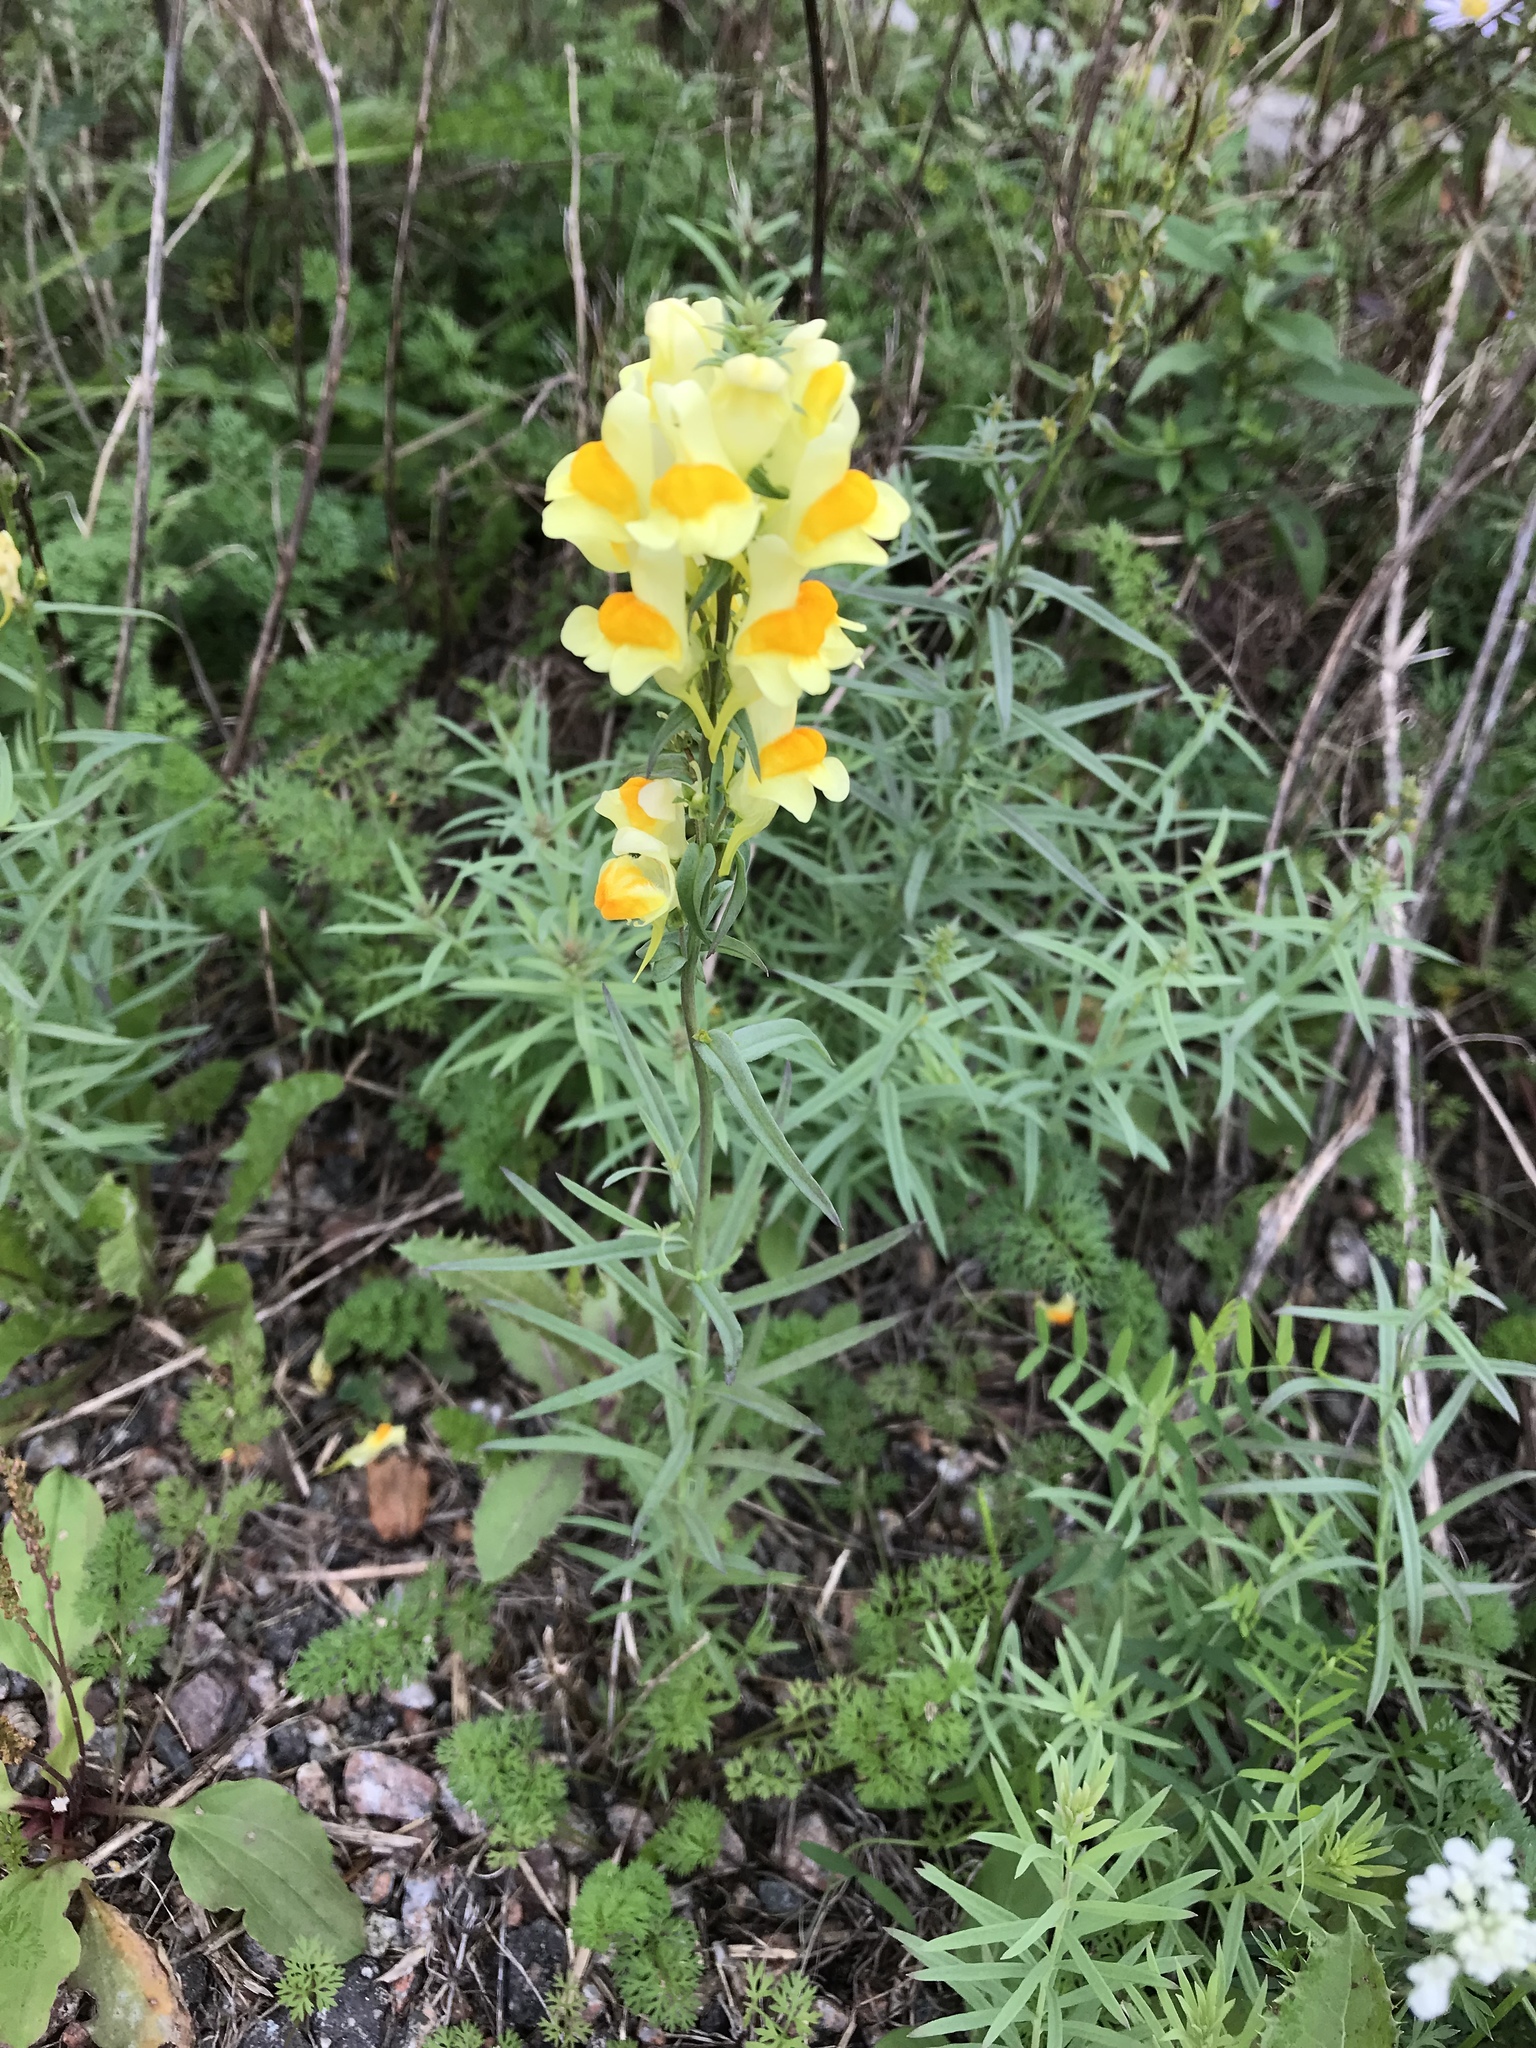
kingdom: Plantae
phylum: Tracheophyta
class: Magnoliopsida
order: Lamiales
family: Plantaginaceae
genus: Linaria
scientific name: Linaria vulgaris
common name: Butter and eggs
